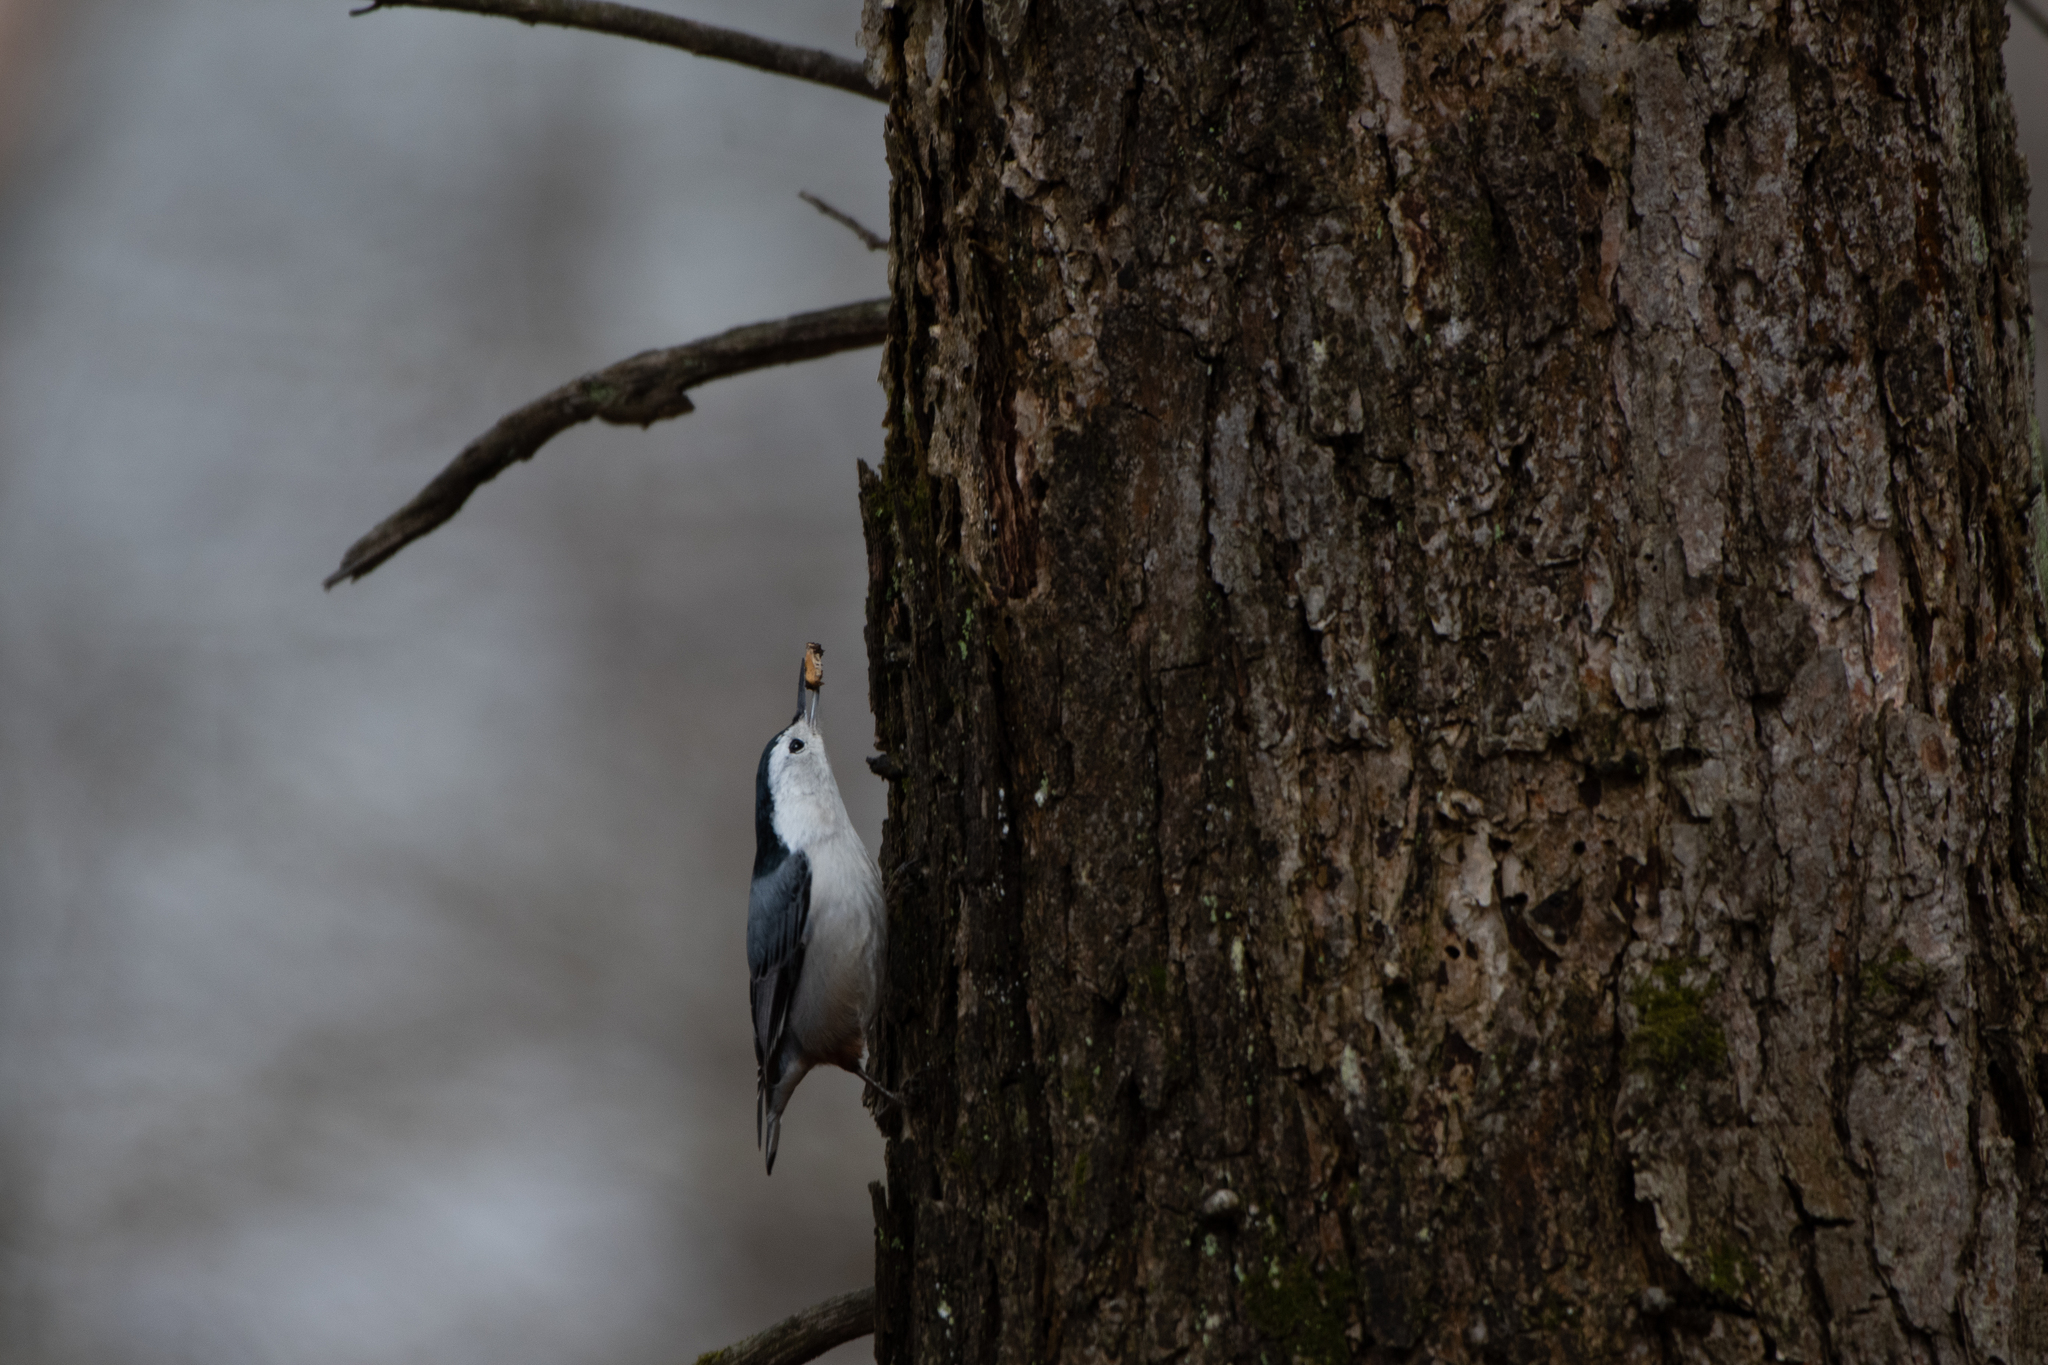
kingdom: Animalia
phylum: Chordata
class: Aves
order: Passeriformes
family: Sittidae
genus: Sitta
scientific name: Sitta carolinensis
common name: White-breasted nuthatch
